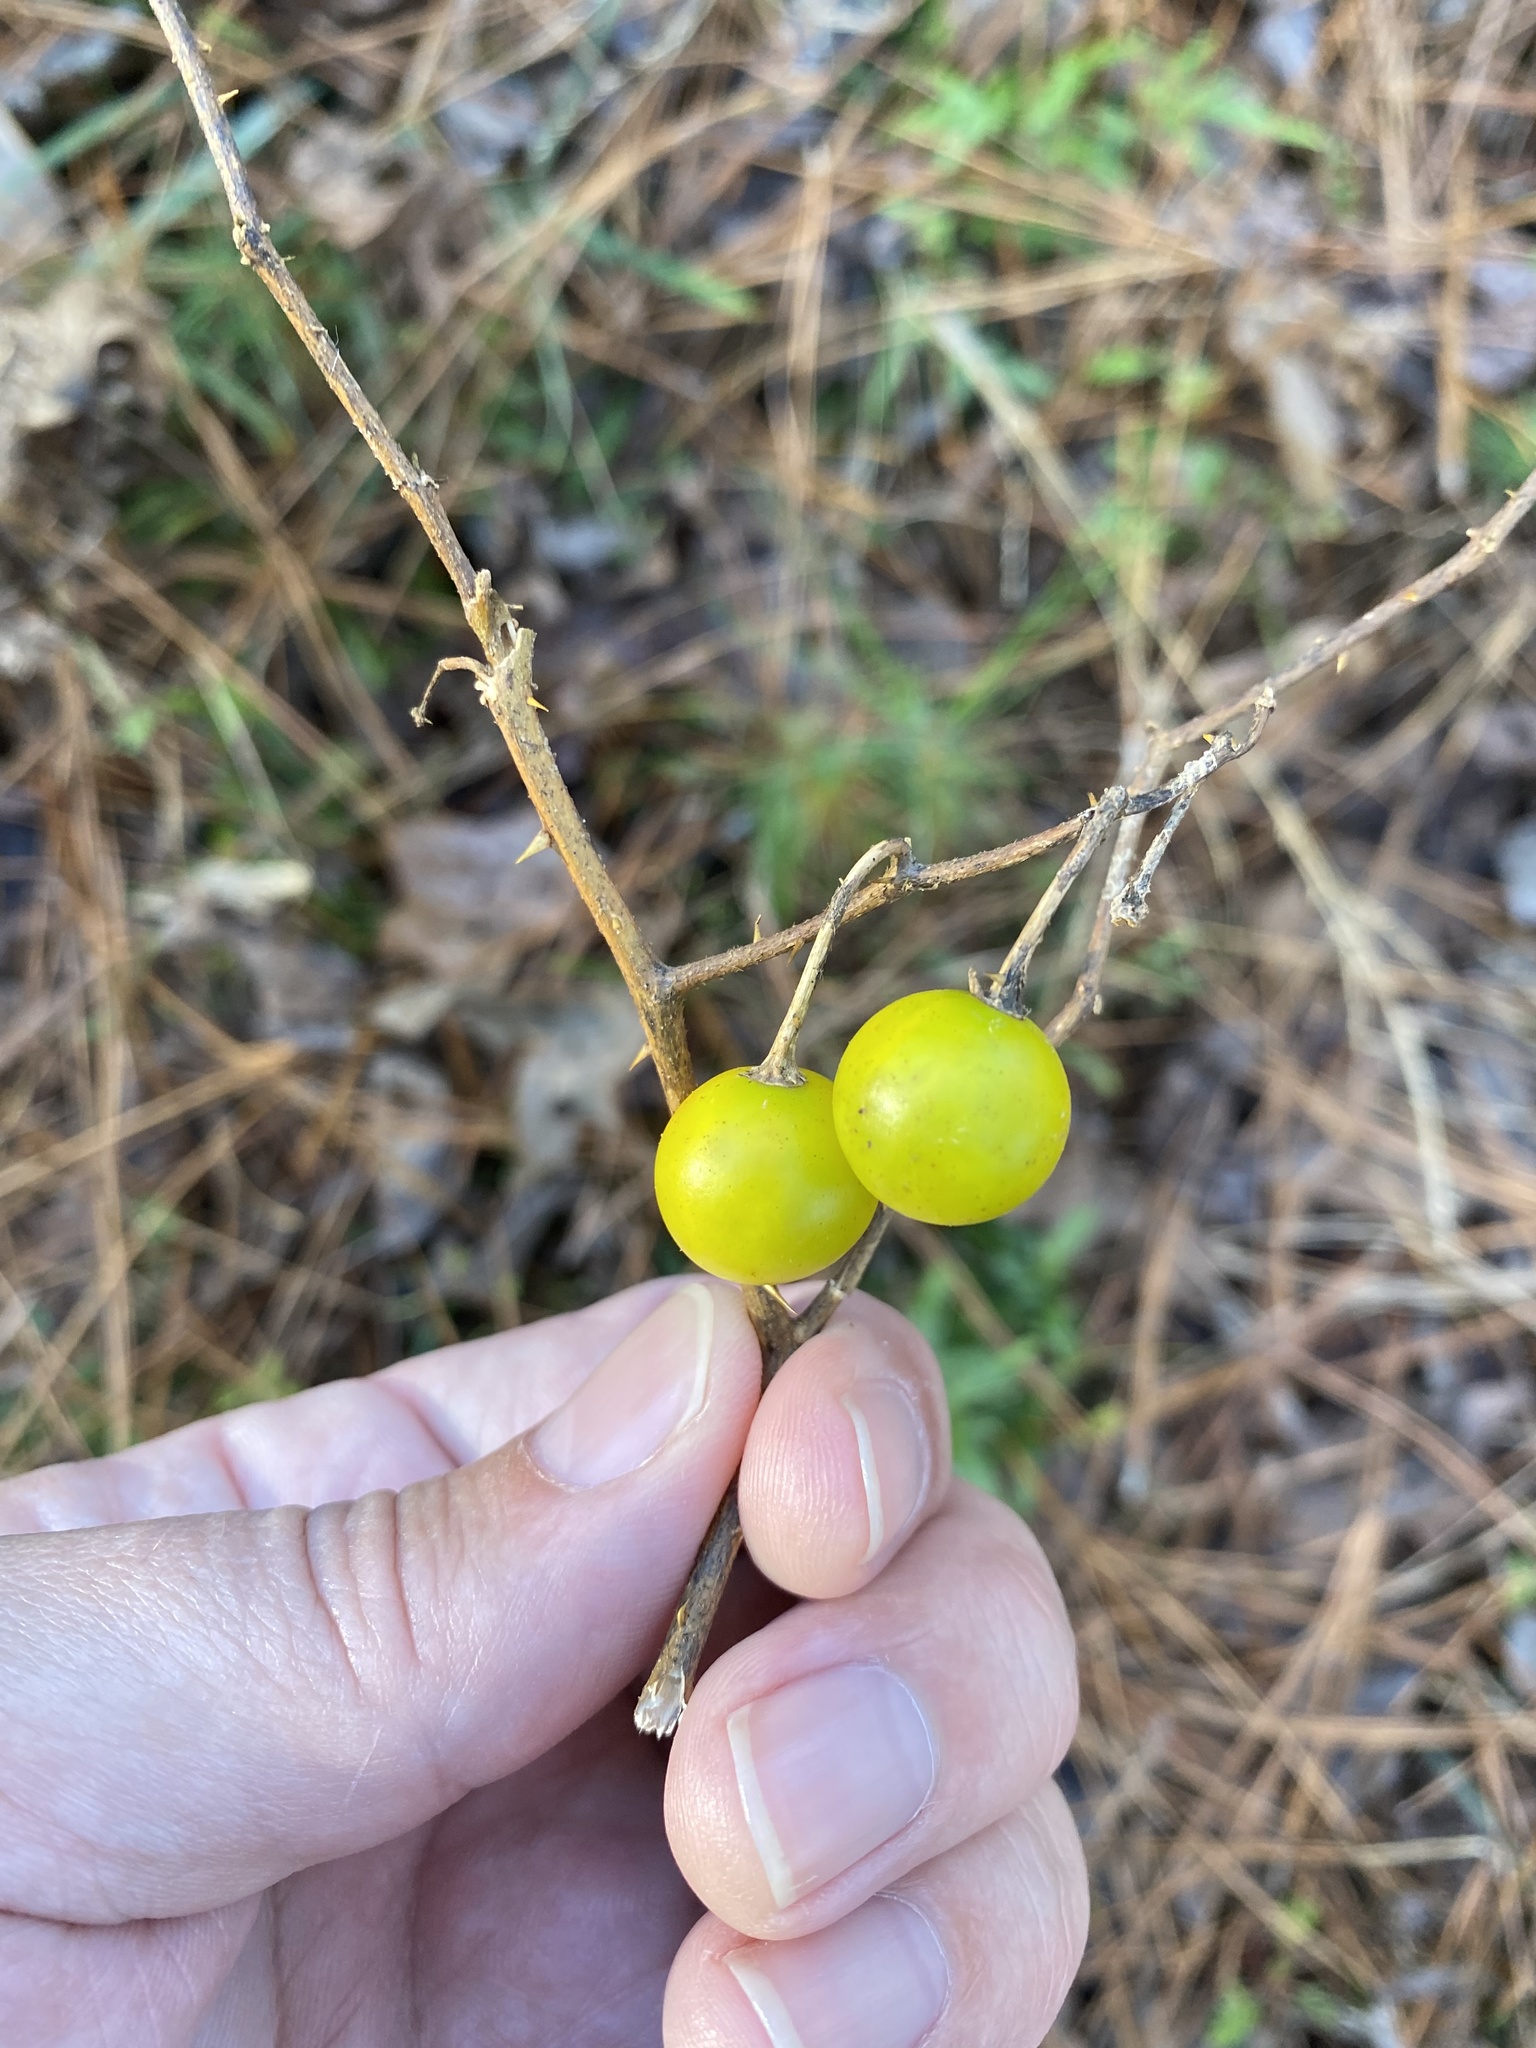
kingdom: Plantae
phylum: Tracheophyta
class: Magnoliopsida
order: Solanales
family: Solanaceae
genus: Solanum
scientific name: Solanum carolinense
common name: Horse-nettle
